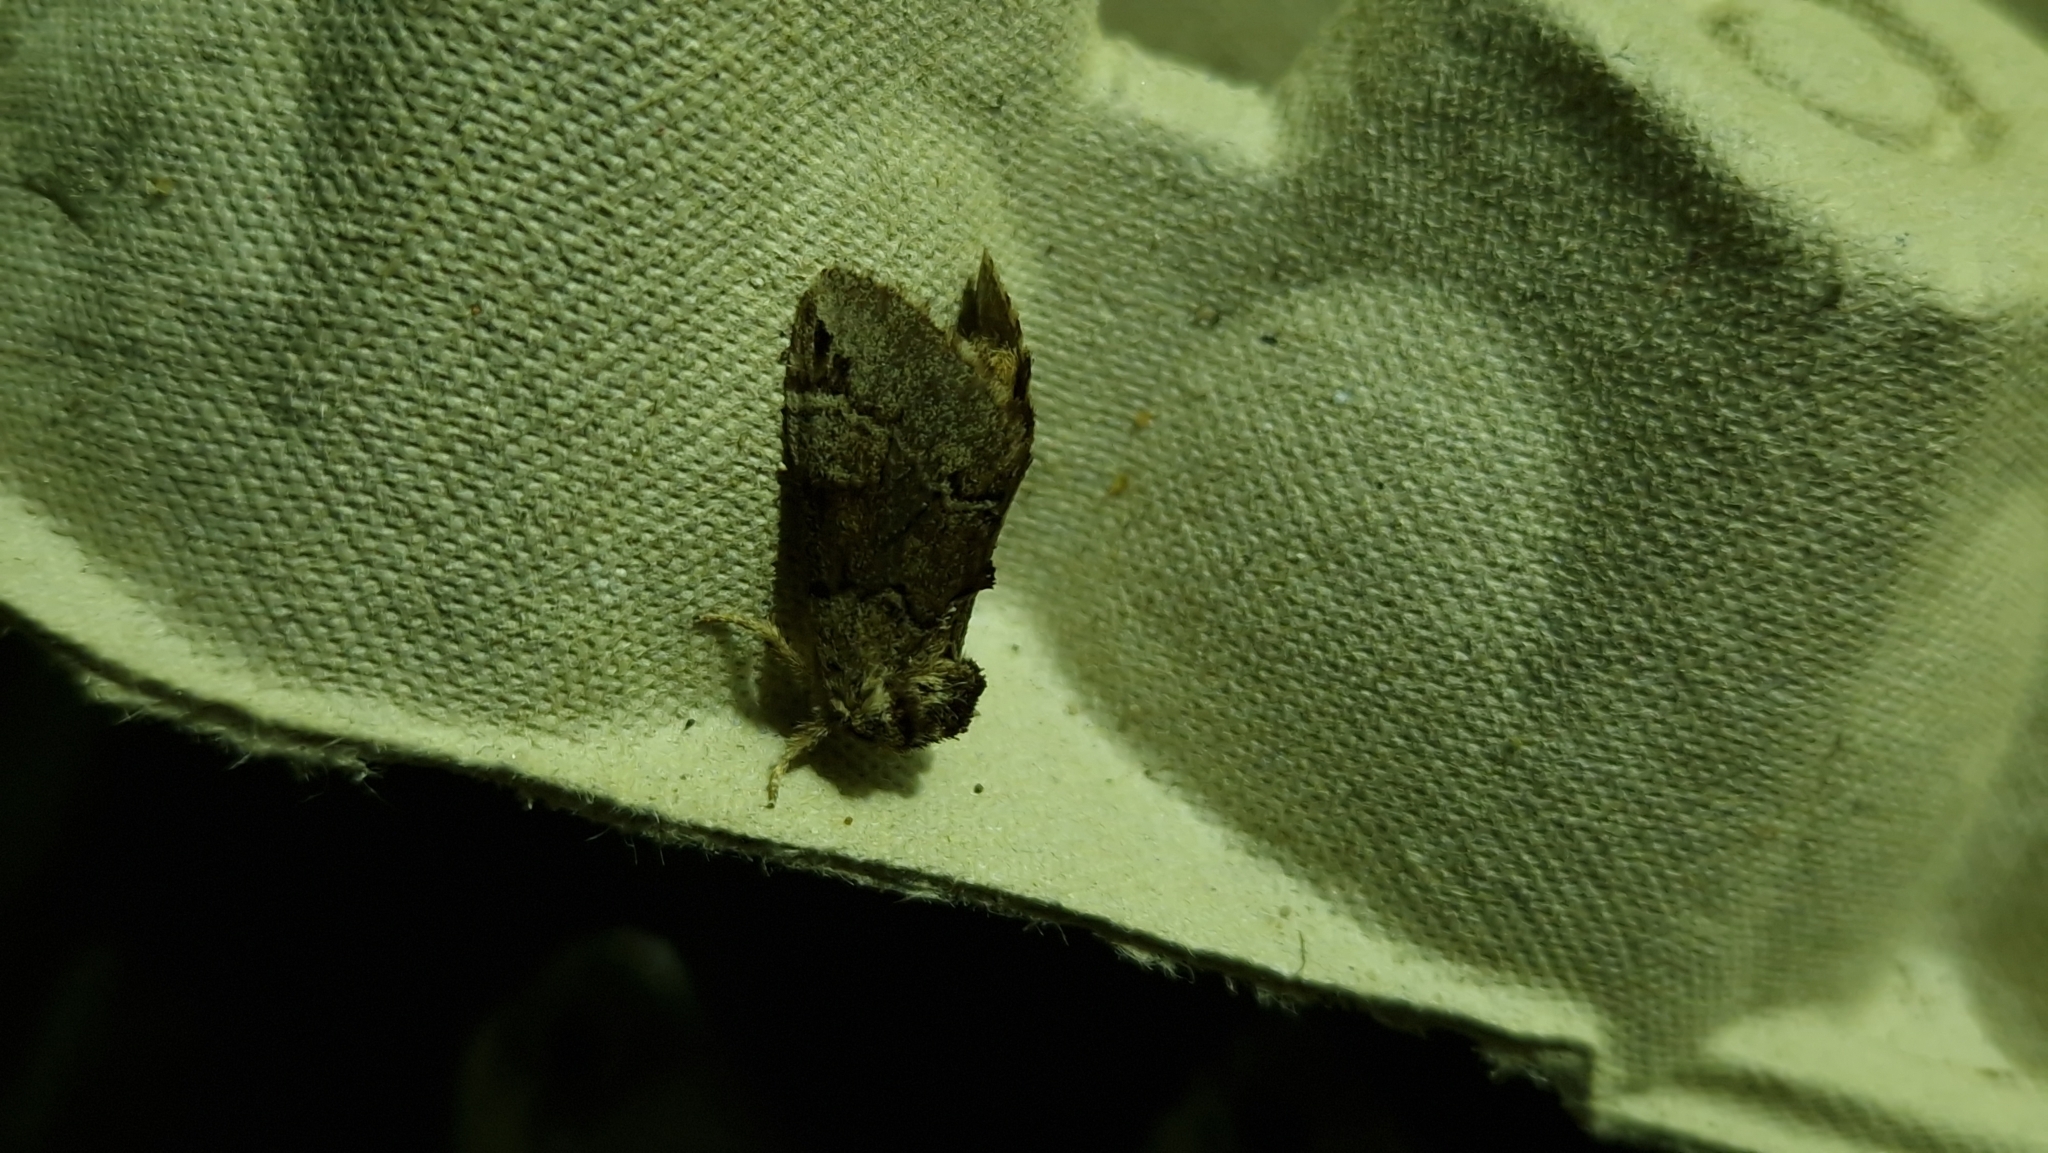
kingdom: Animalia
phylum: Arthropoda
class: Insecta
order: Lepidoptera
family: Notodontidae
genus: Drymonia
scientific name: Drymonia obliterata
